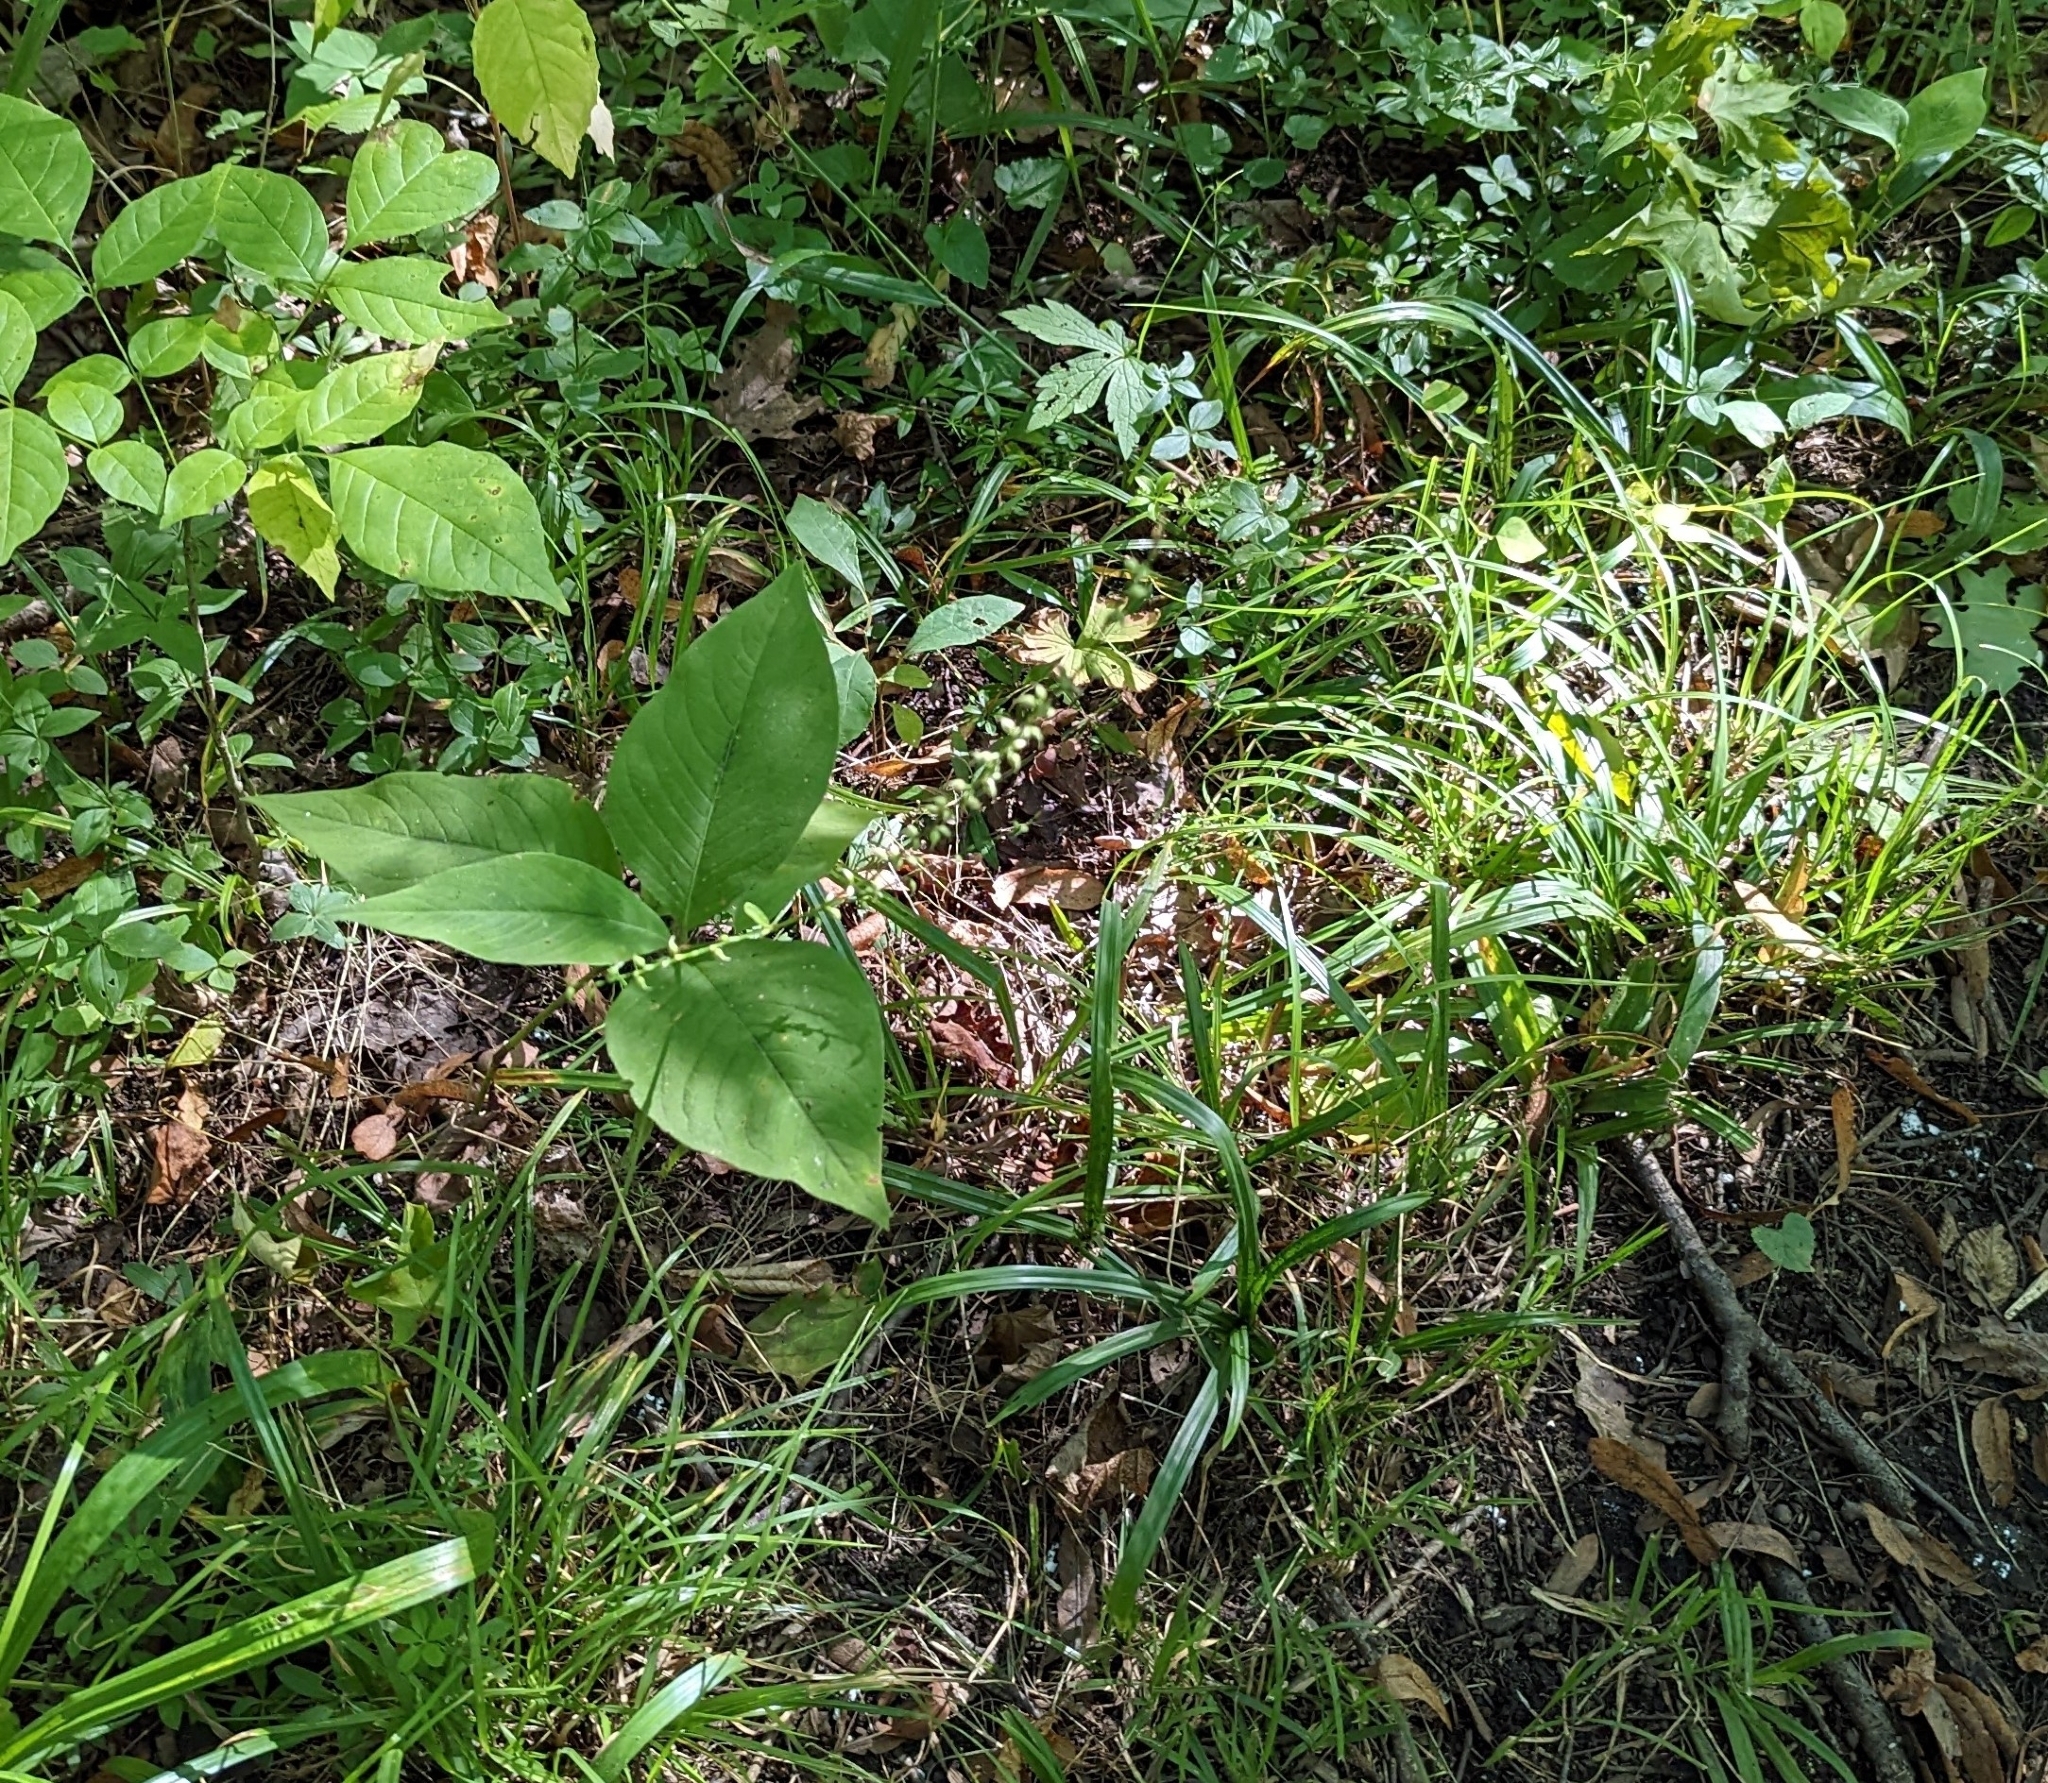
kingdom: Plantae
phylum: Tracheophyta
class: Magnoliopsida
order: Caryophyllales
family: Polygonaceae
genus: Persicaria
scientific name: Persicaria virginiana
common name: Jumpseed
